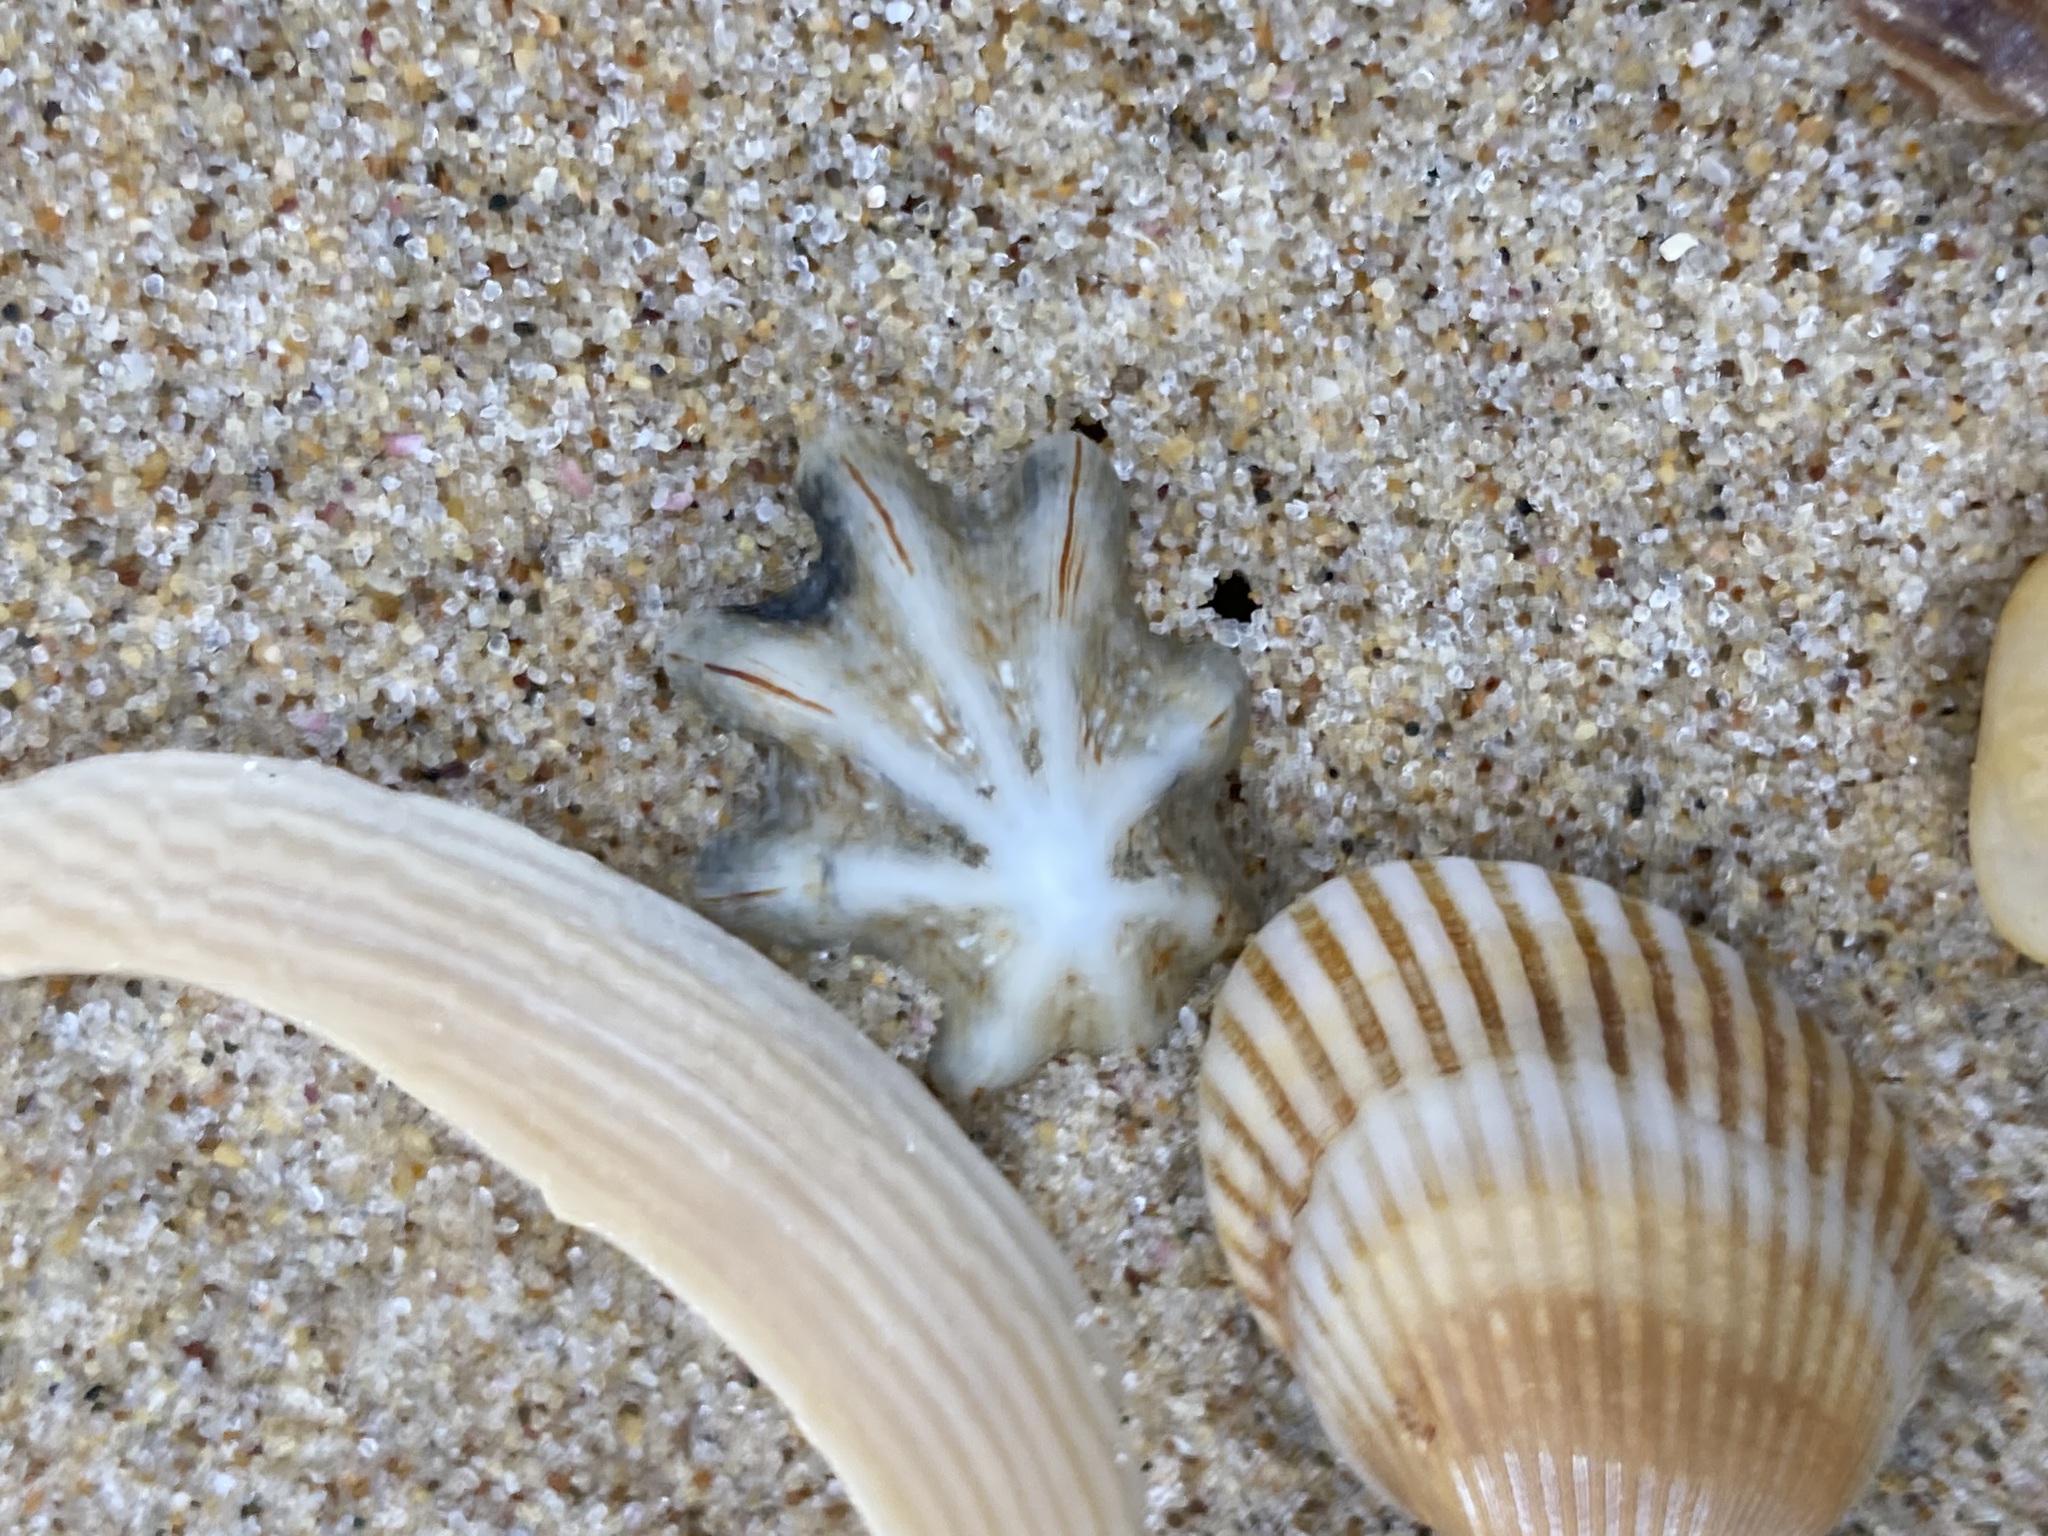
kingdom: Animalia
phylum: Mollusca
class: Gastropoda
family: Patellidae
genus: Scutellastra
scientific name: Scutellastra chapmani
